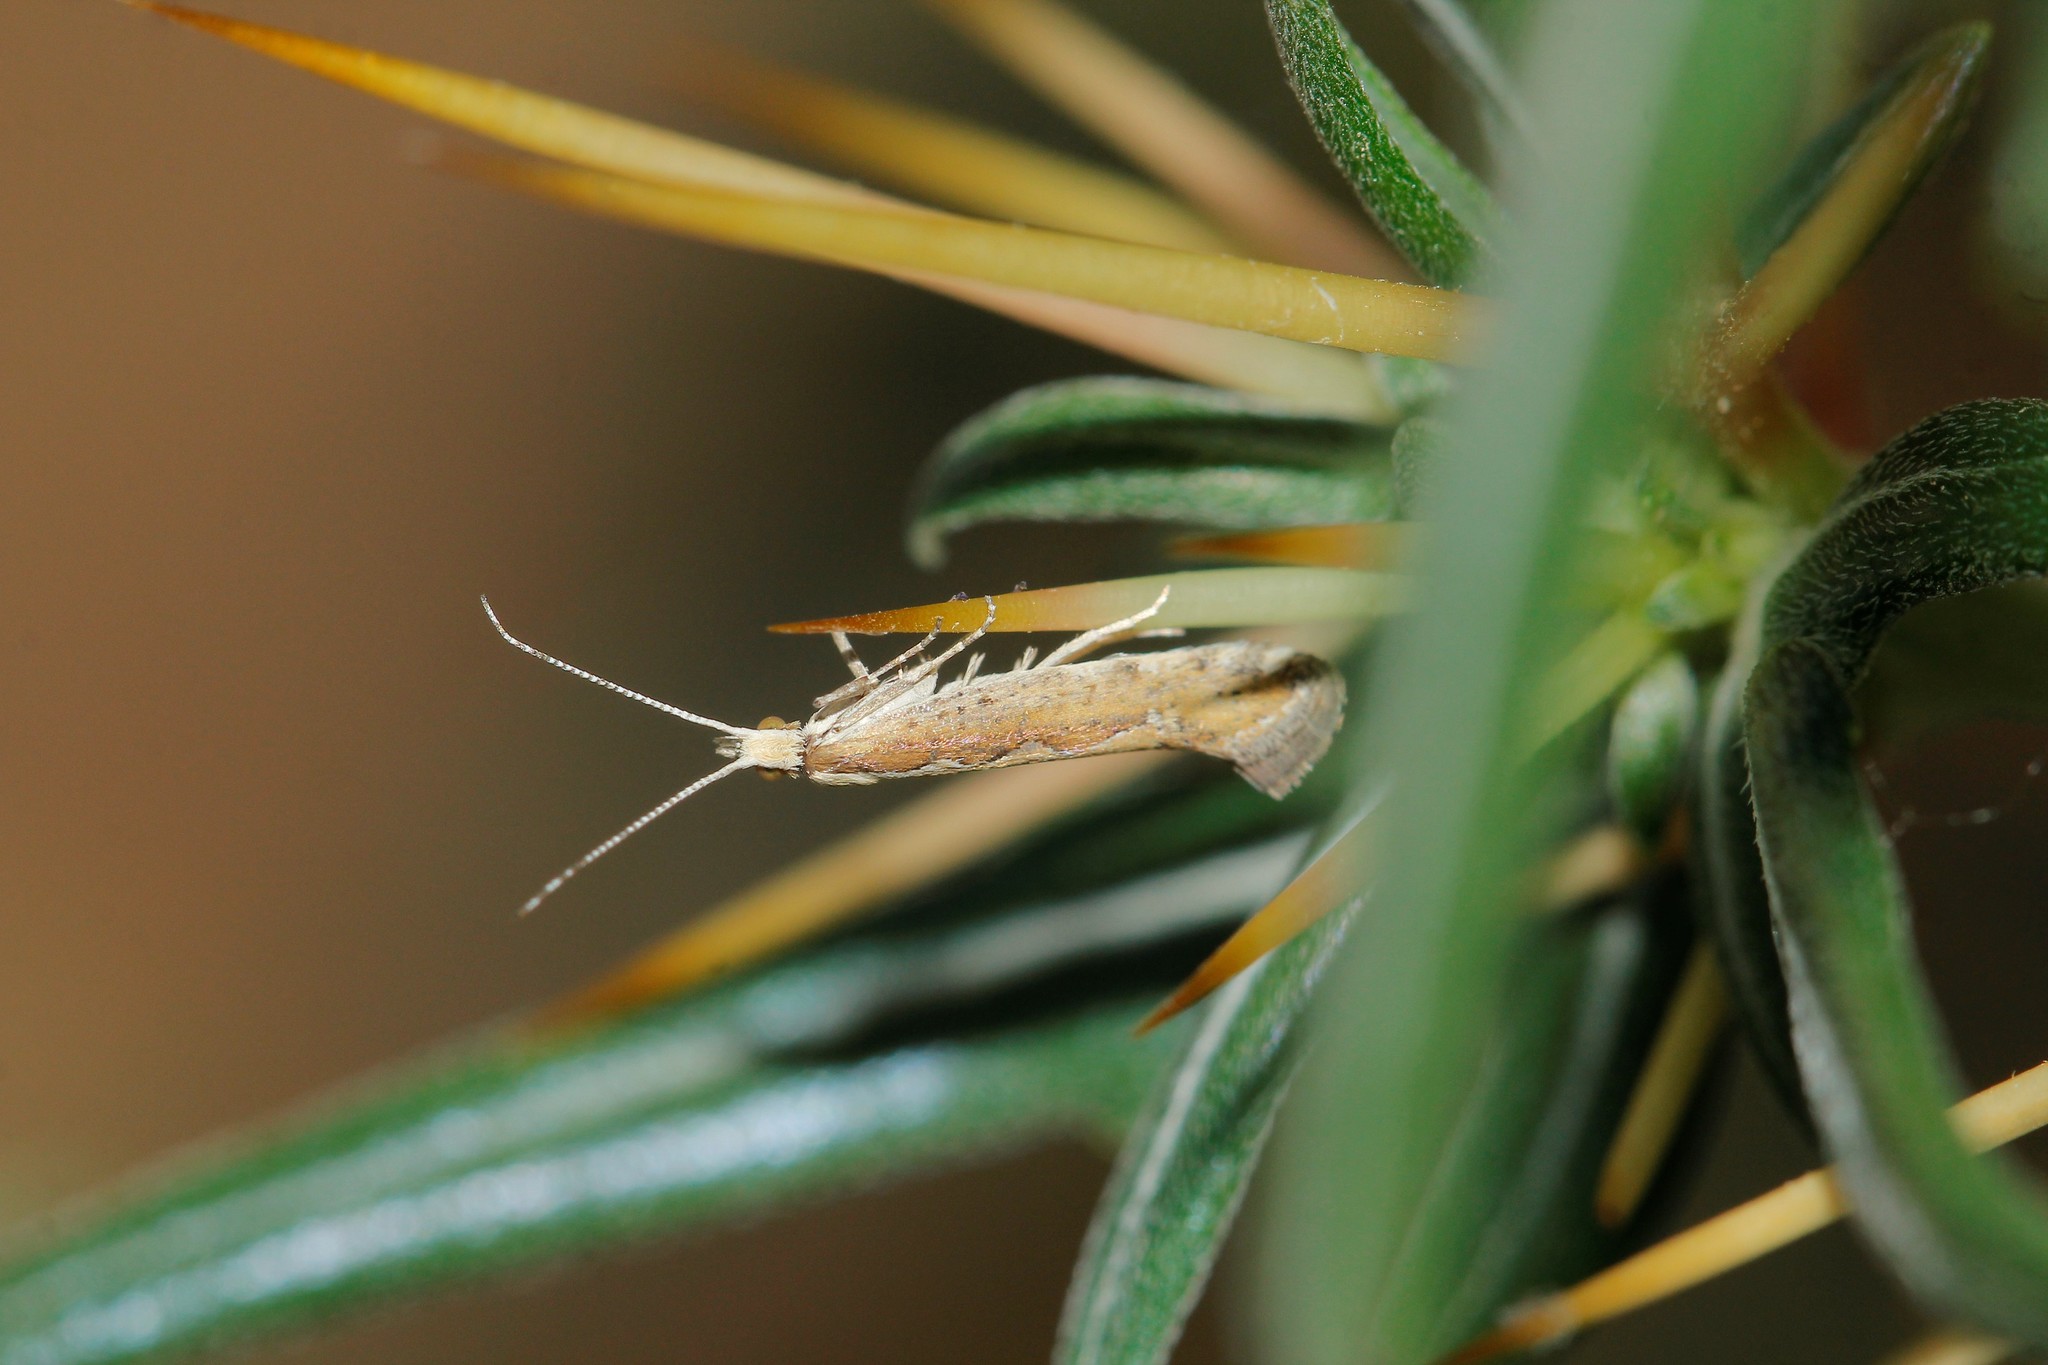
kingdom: Animalia
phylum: Arthropoda
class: Insecta
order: Lepidoptera
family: Plutellidae
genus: Plutella
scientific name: Plutella xylostella
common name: Diamond-back moth
